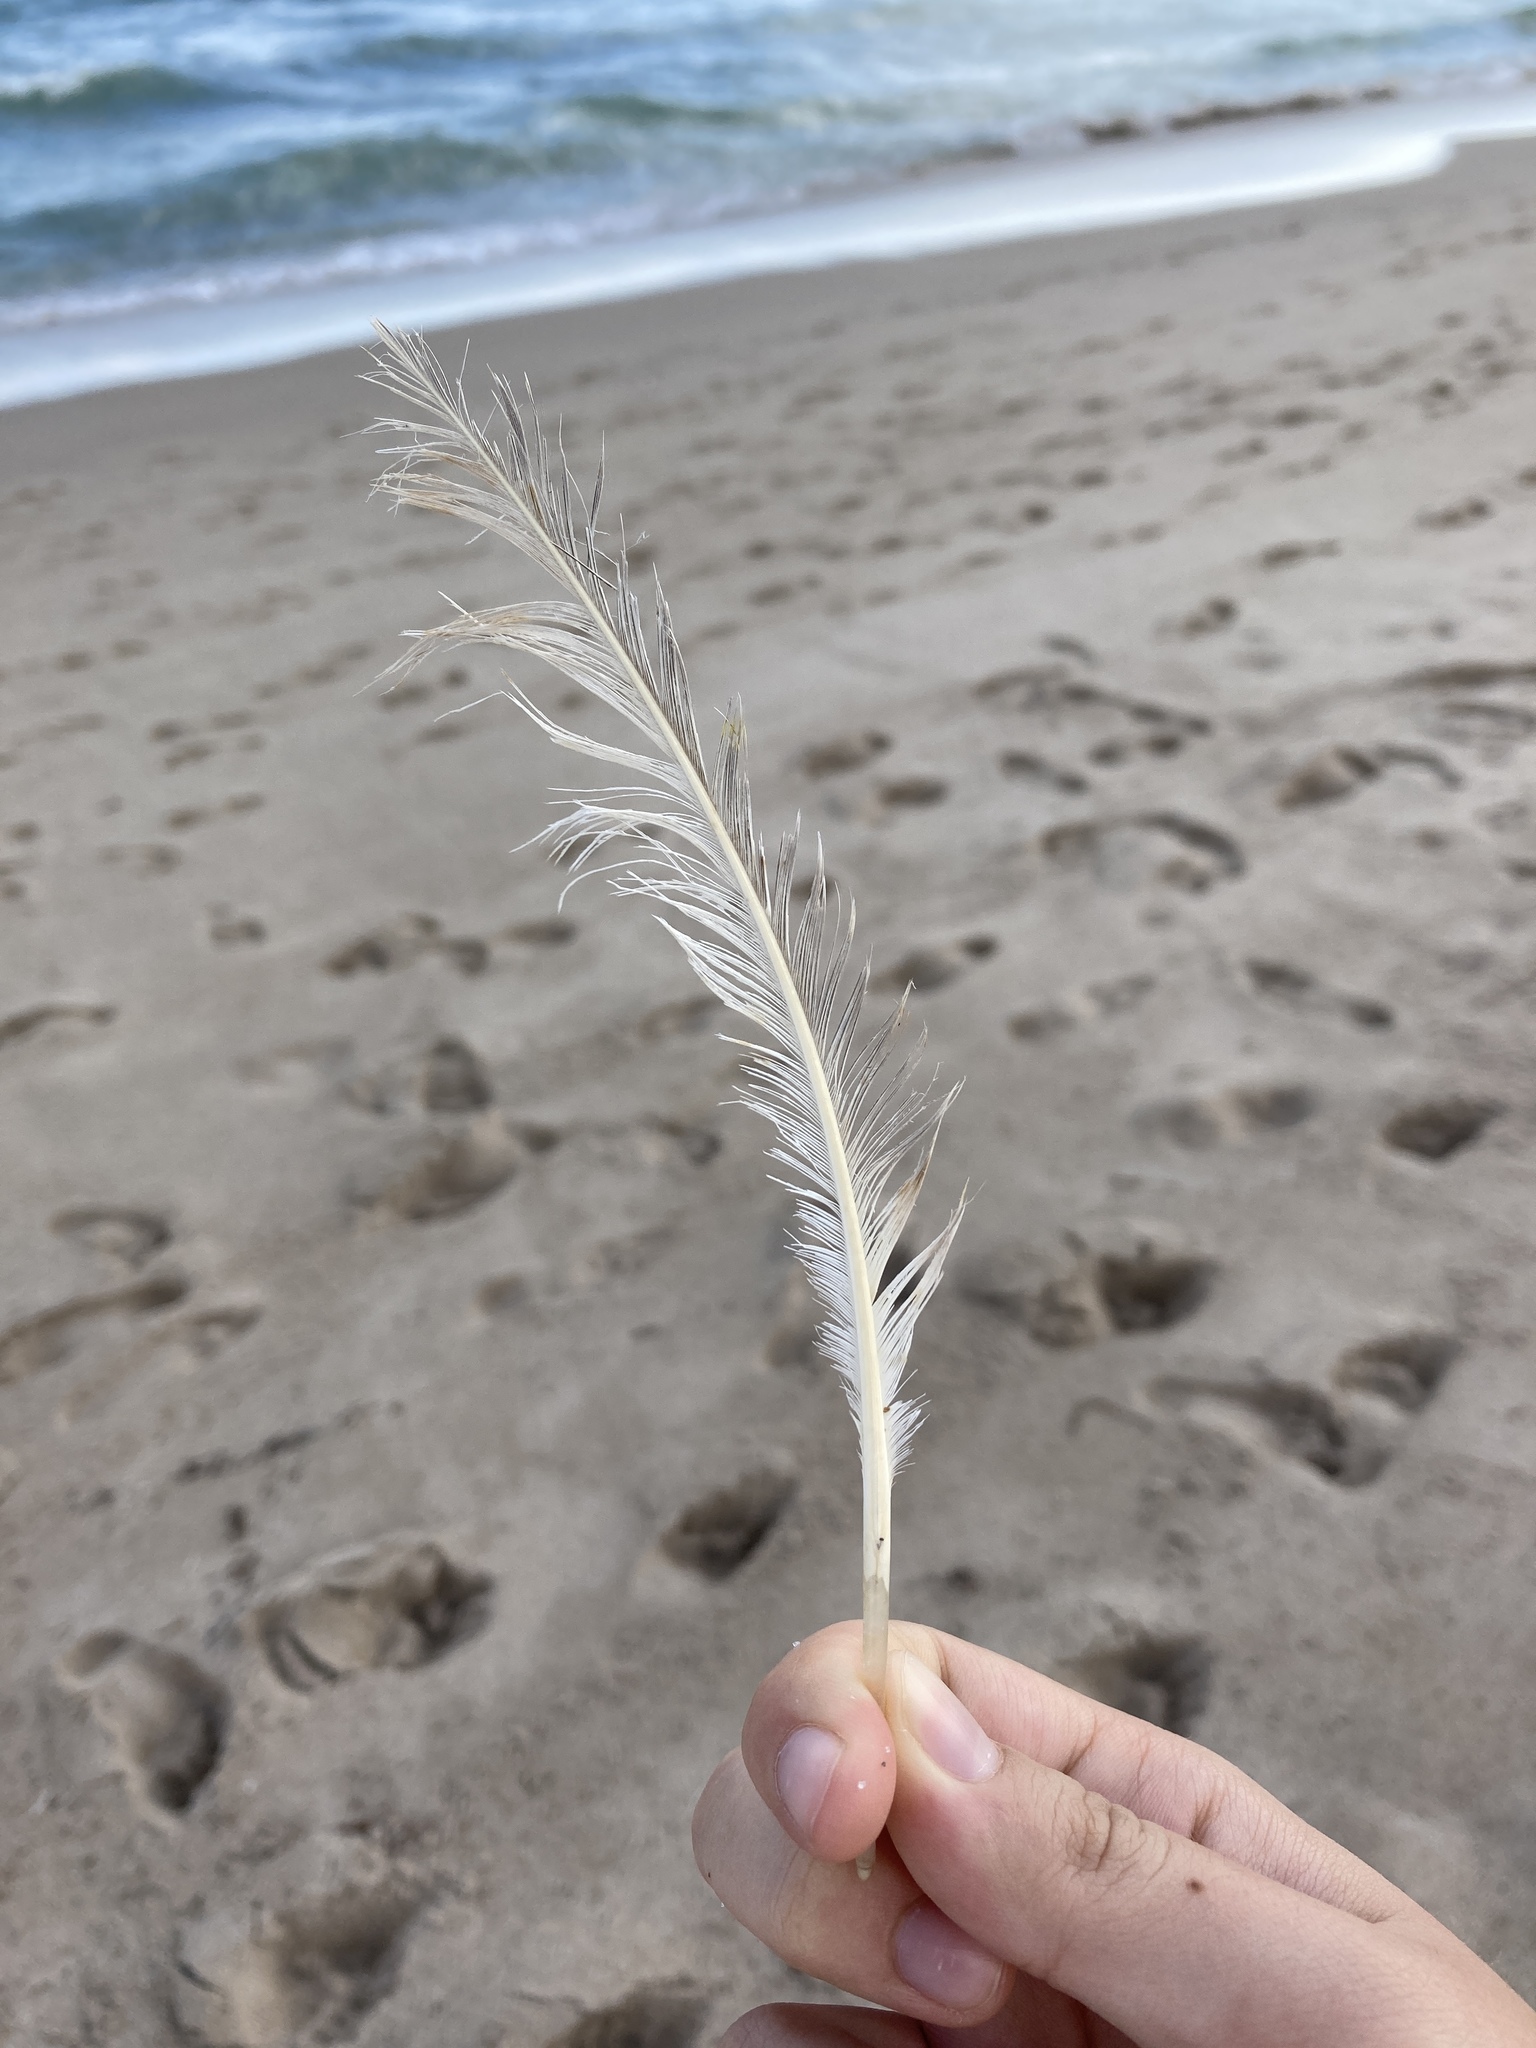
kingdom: Animalia
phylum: Chordata
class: Aves
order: Pelecaniformes
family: Pelecanidae
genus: Pelecanus
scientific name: Pelecanus occidentalis
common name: Brown pelican
